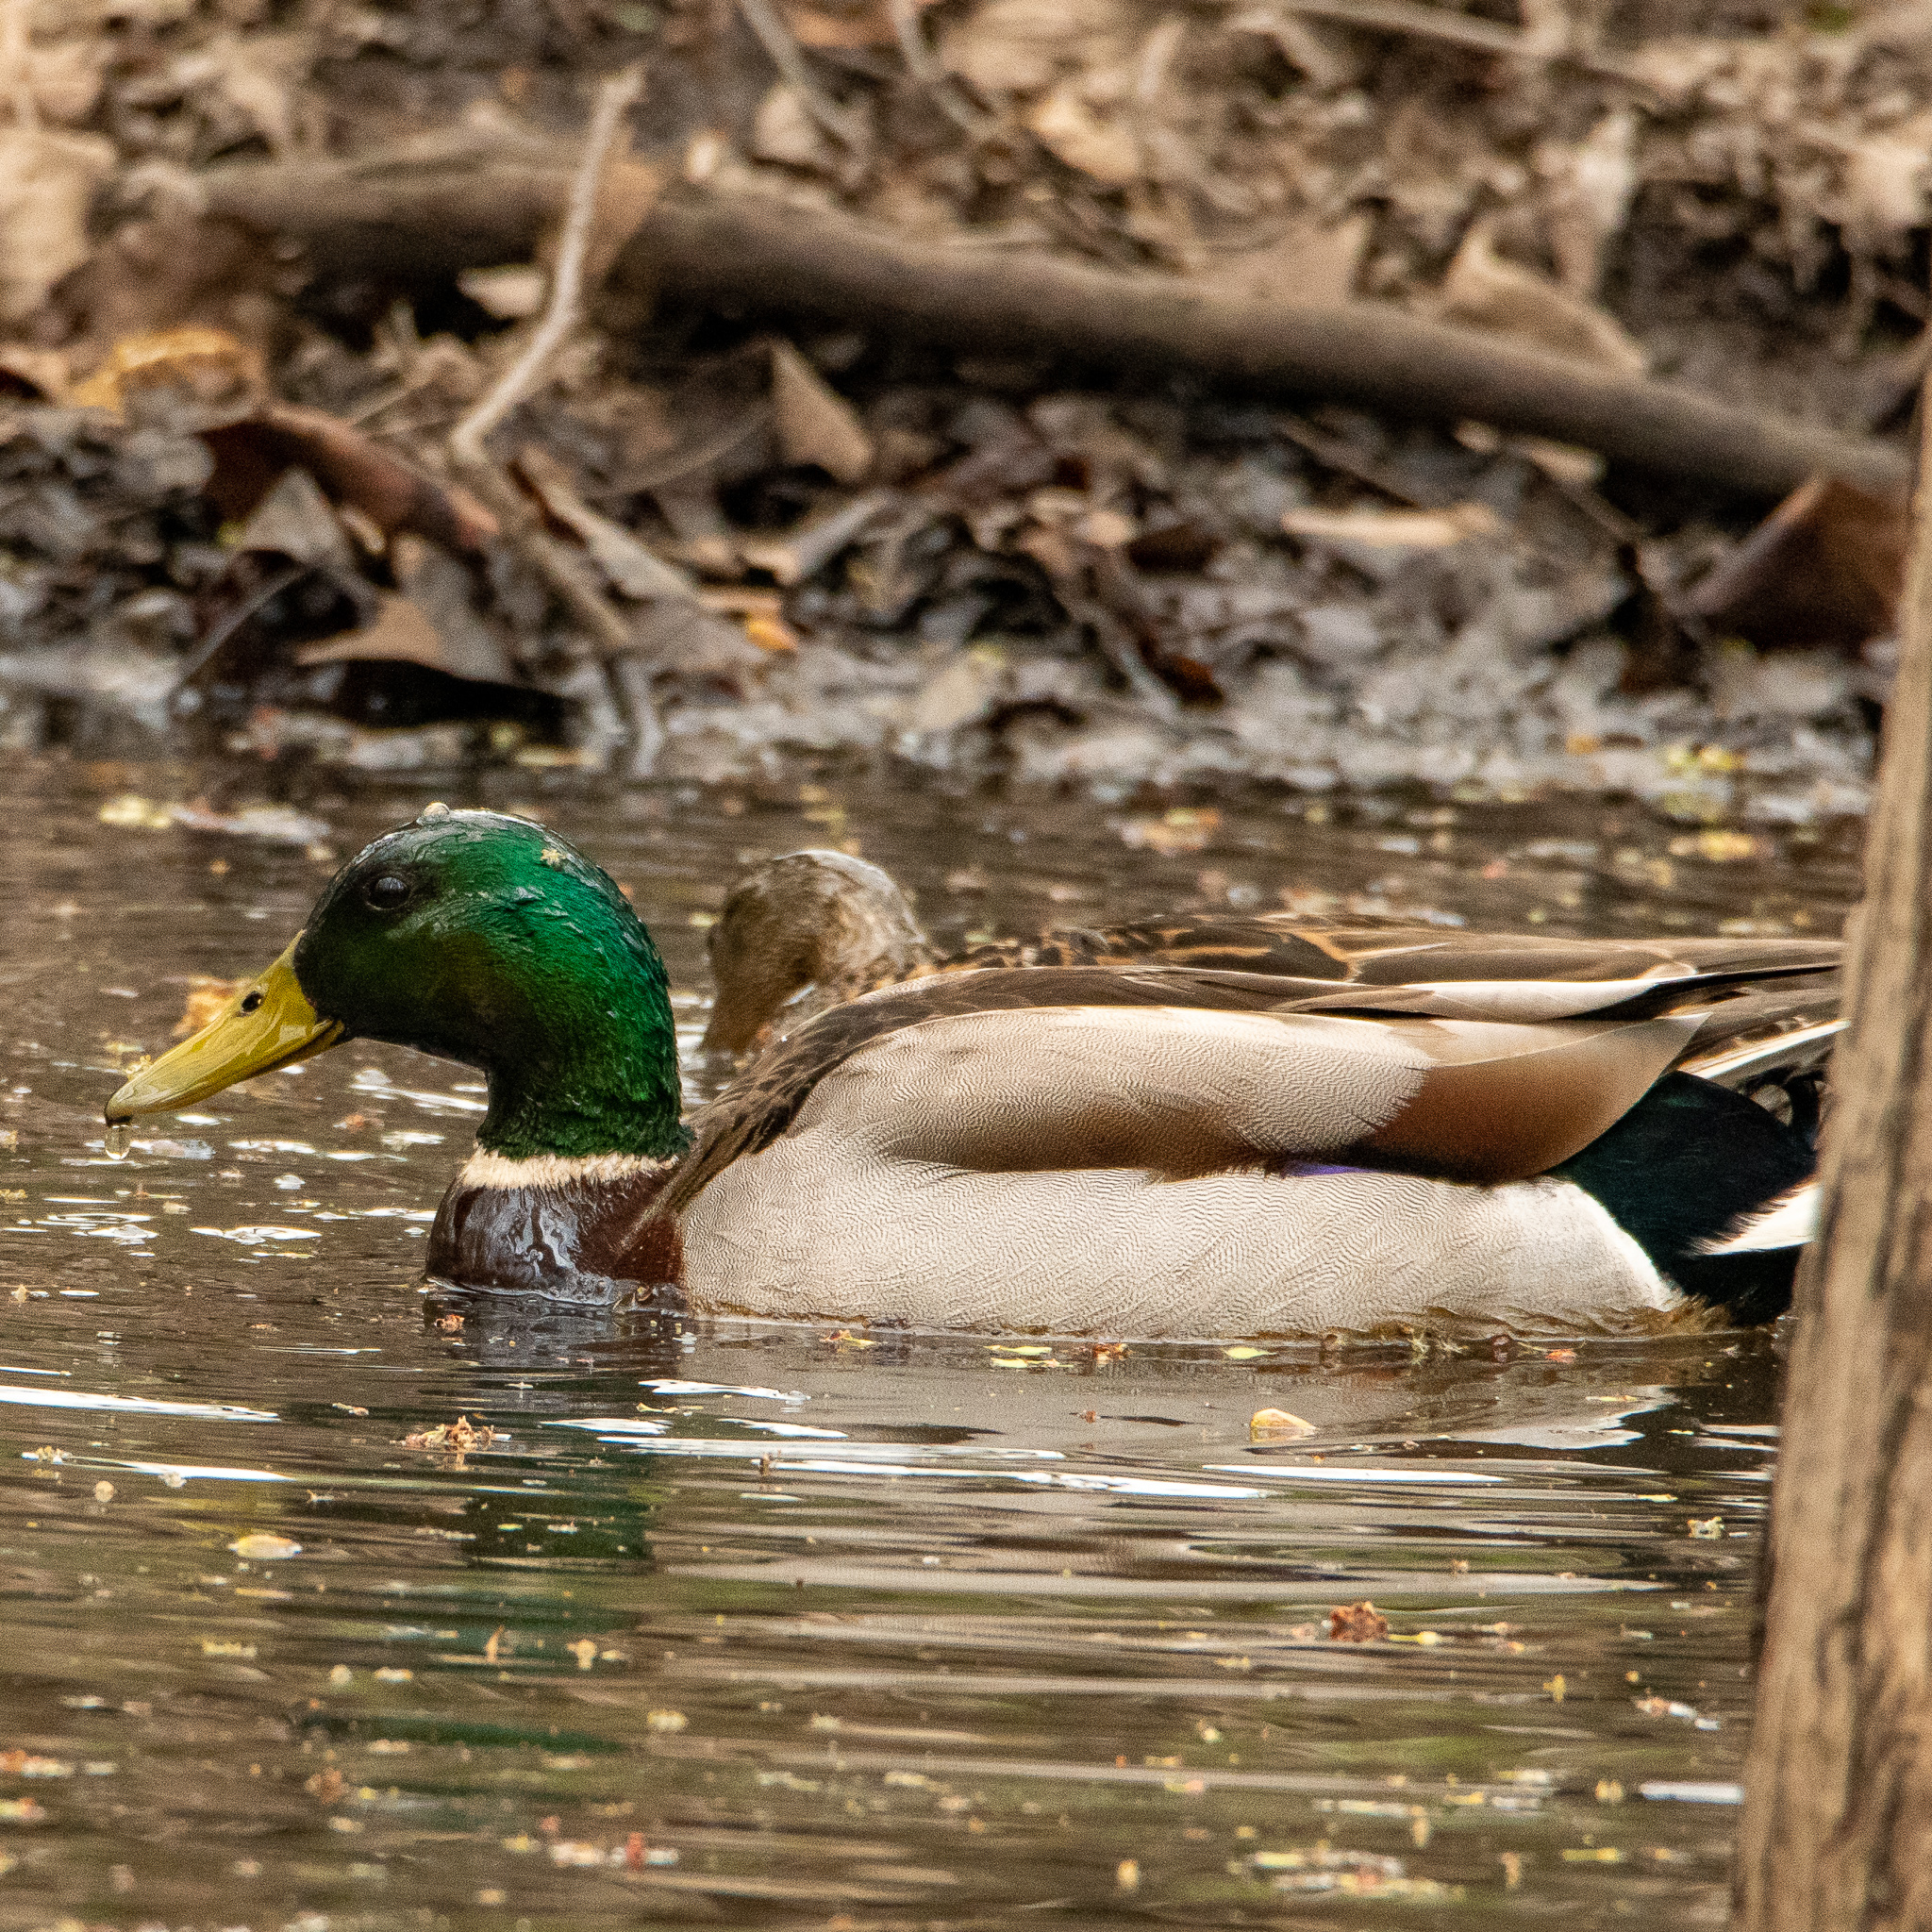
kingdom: Animalia
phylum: Chordata
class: Aves
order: Anseriformes
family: Anatidae
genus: Anas
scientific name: Anas platyrhynchos
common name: Mallard
